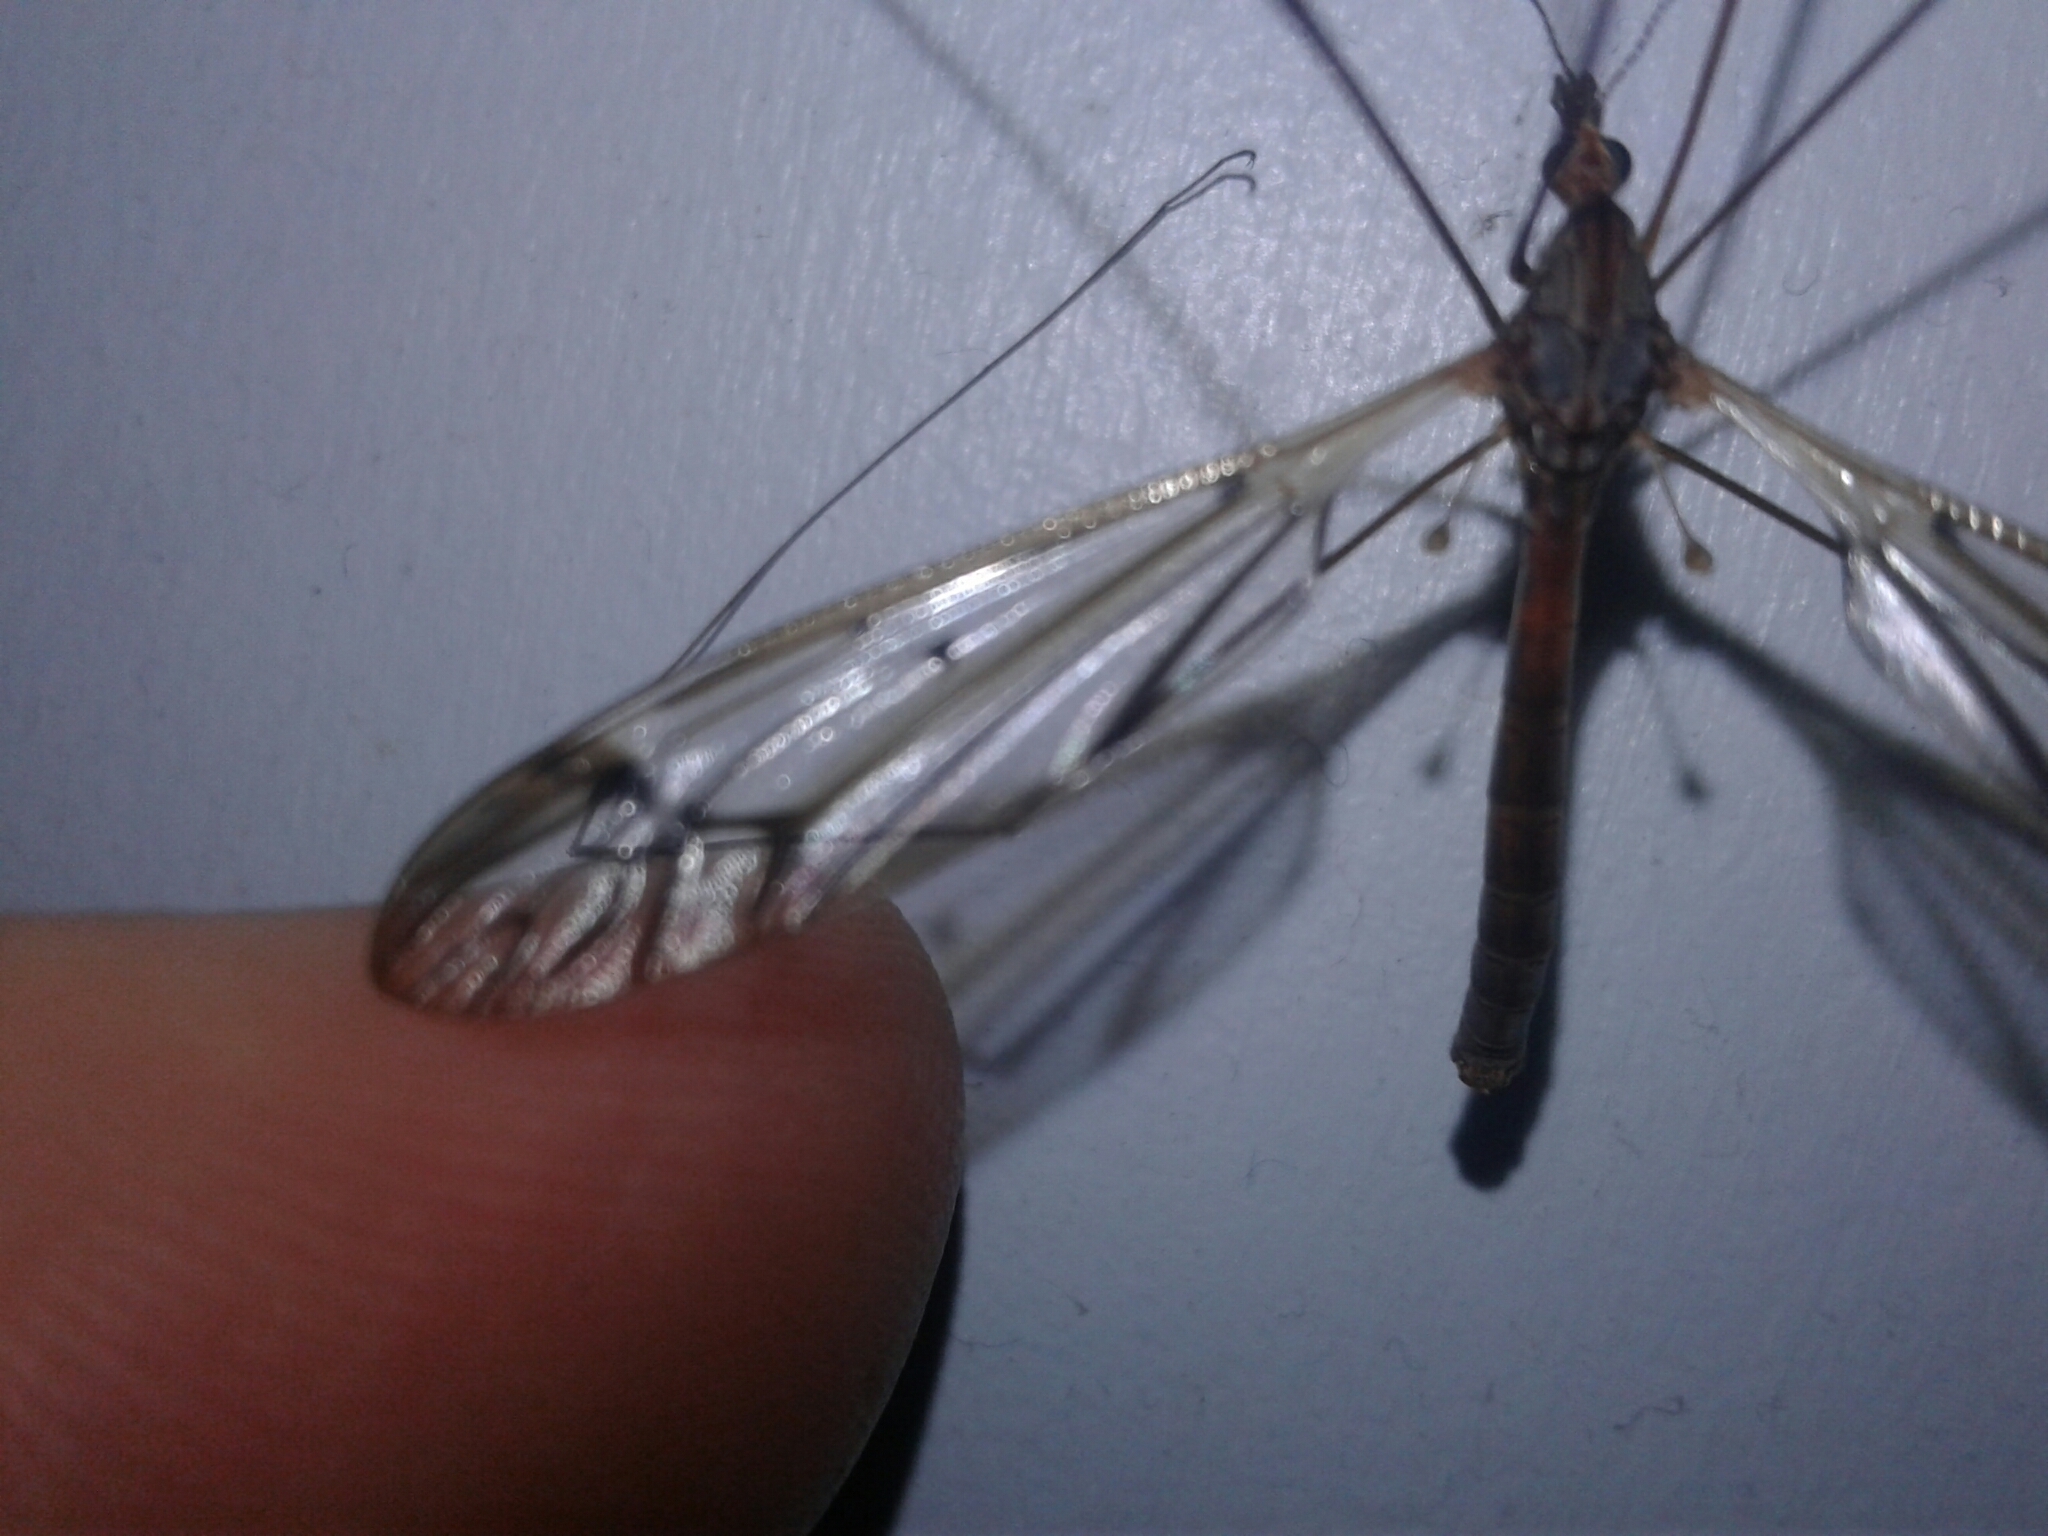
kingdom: Animalia
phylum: Arthropoda
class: Insecta
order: Diptera
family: Tipulidae
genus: Zelandotipula
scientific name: Zelandotipula novarae
